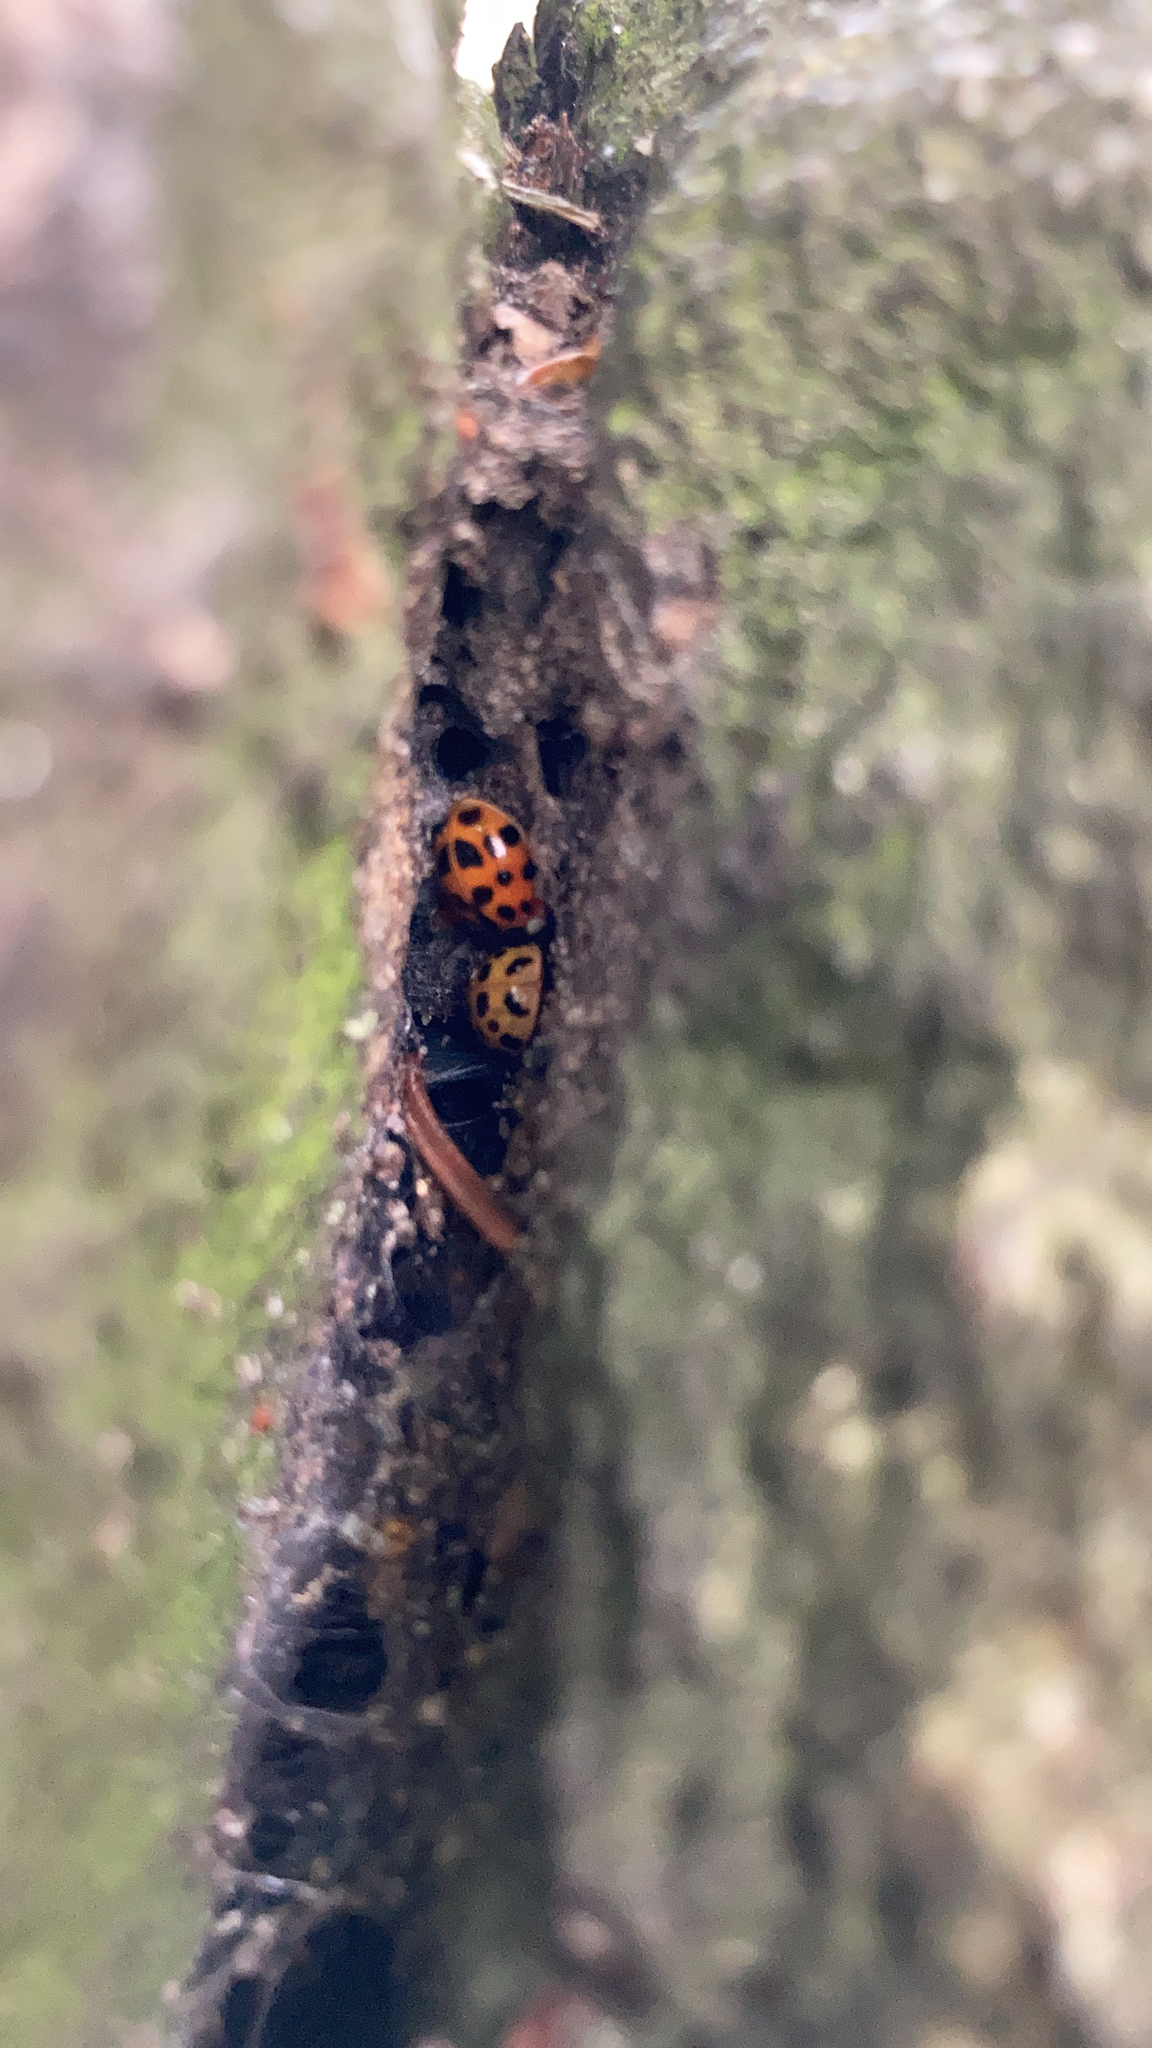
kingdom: Animalia
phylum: Arthropoda
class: Insecta
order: Coleoptera
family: Coccinellidae
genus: Harmonia
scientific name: Harmonia axyridis
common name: Harlequin ladybird
